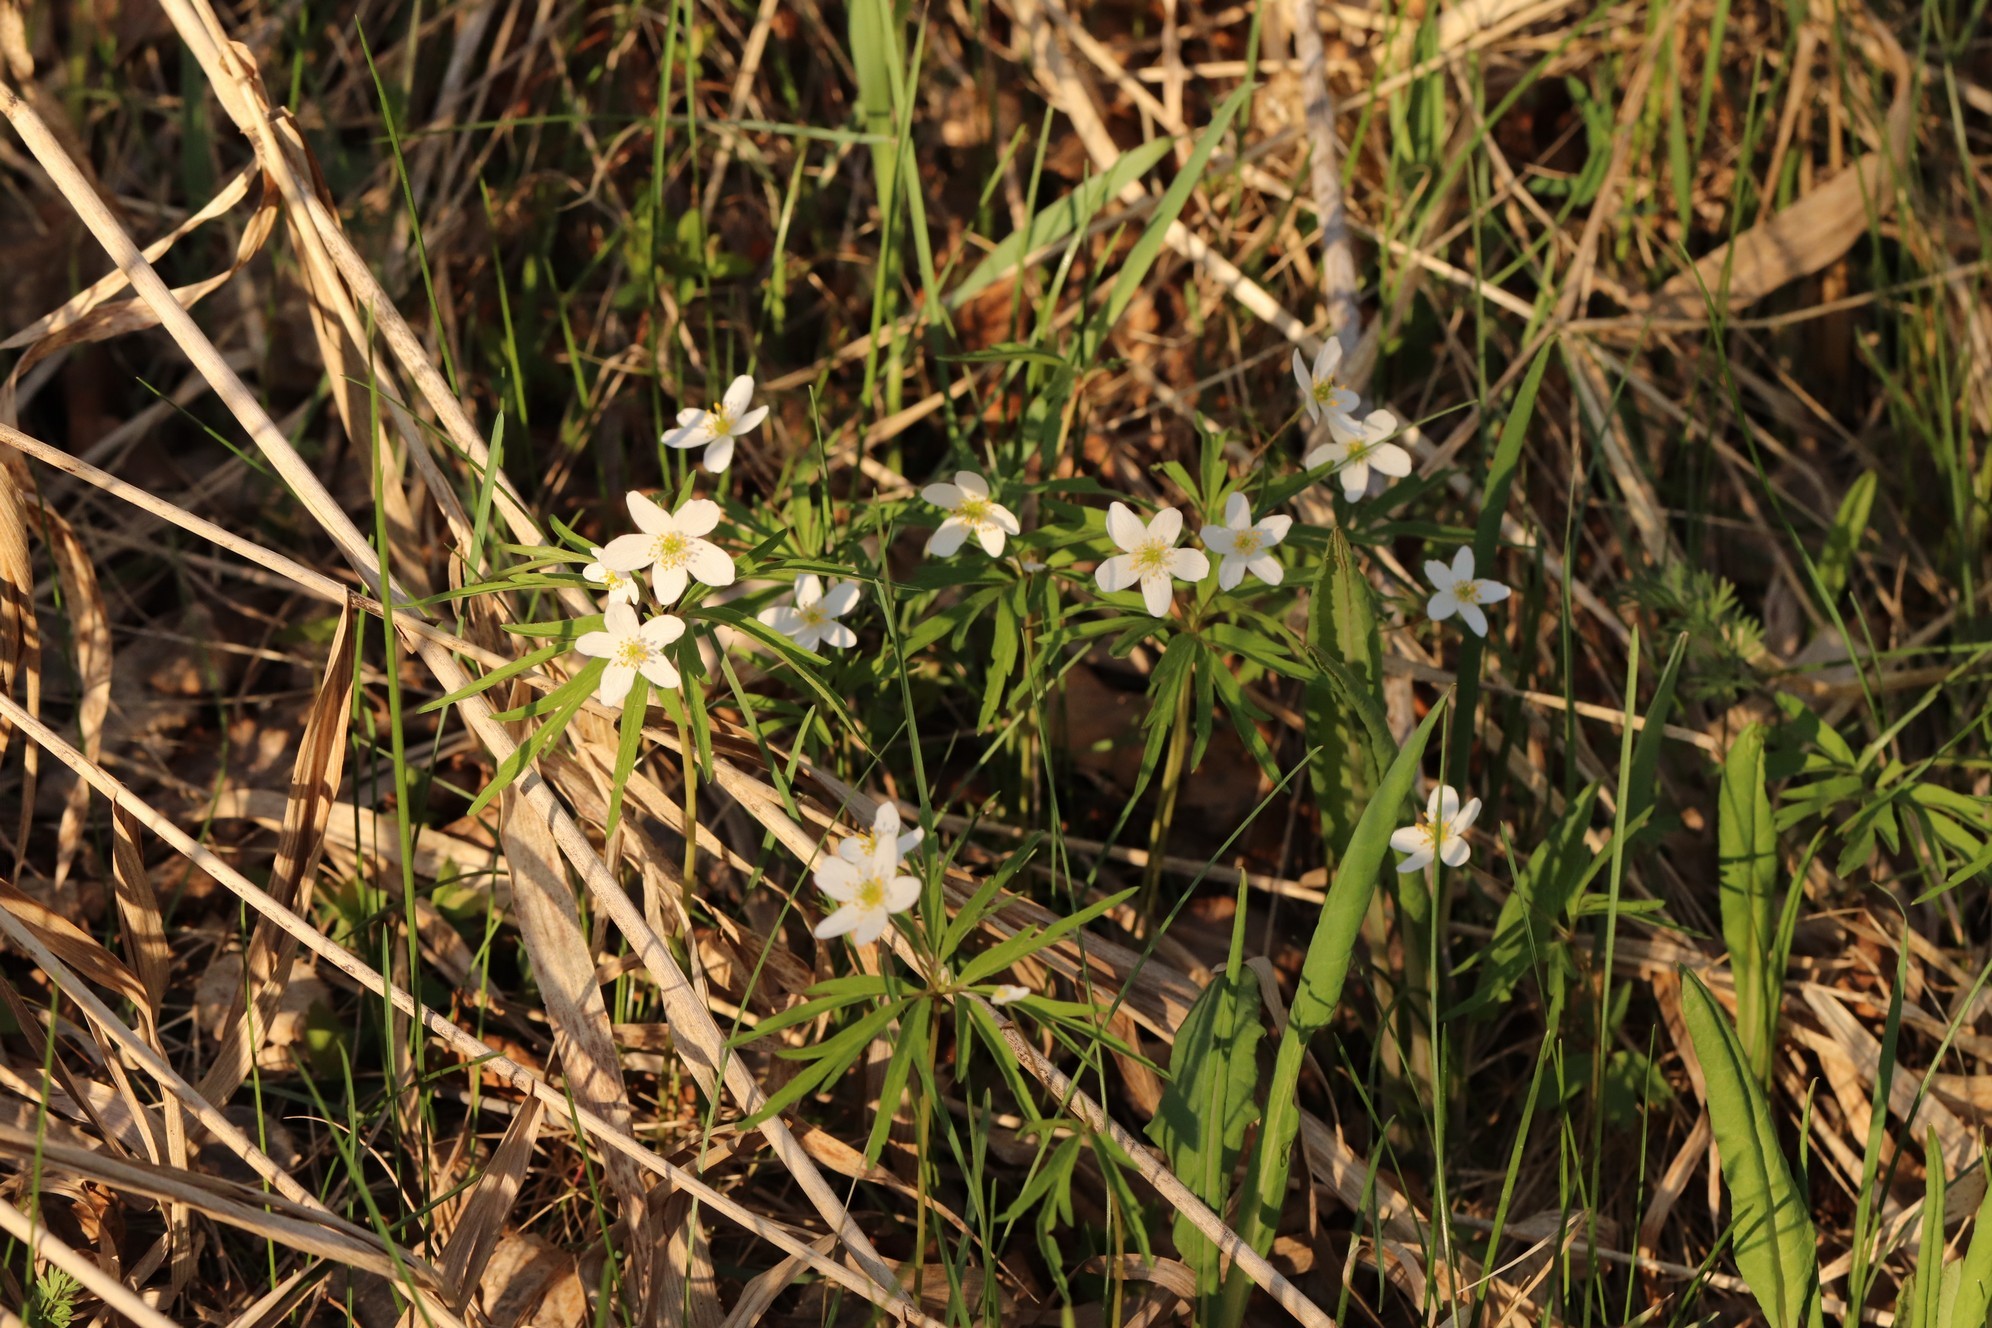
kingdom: Plantae
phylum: Tracheophyta
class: Magnoliopsida
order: Ranunculales
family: Ranunculaceae
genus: Anemone
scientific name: Anemone caerulea
